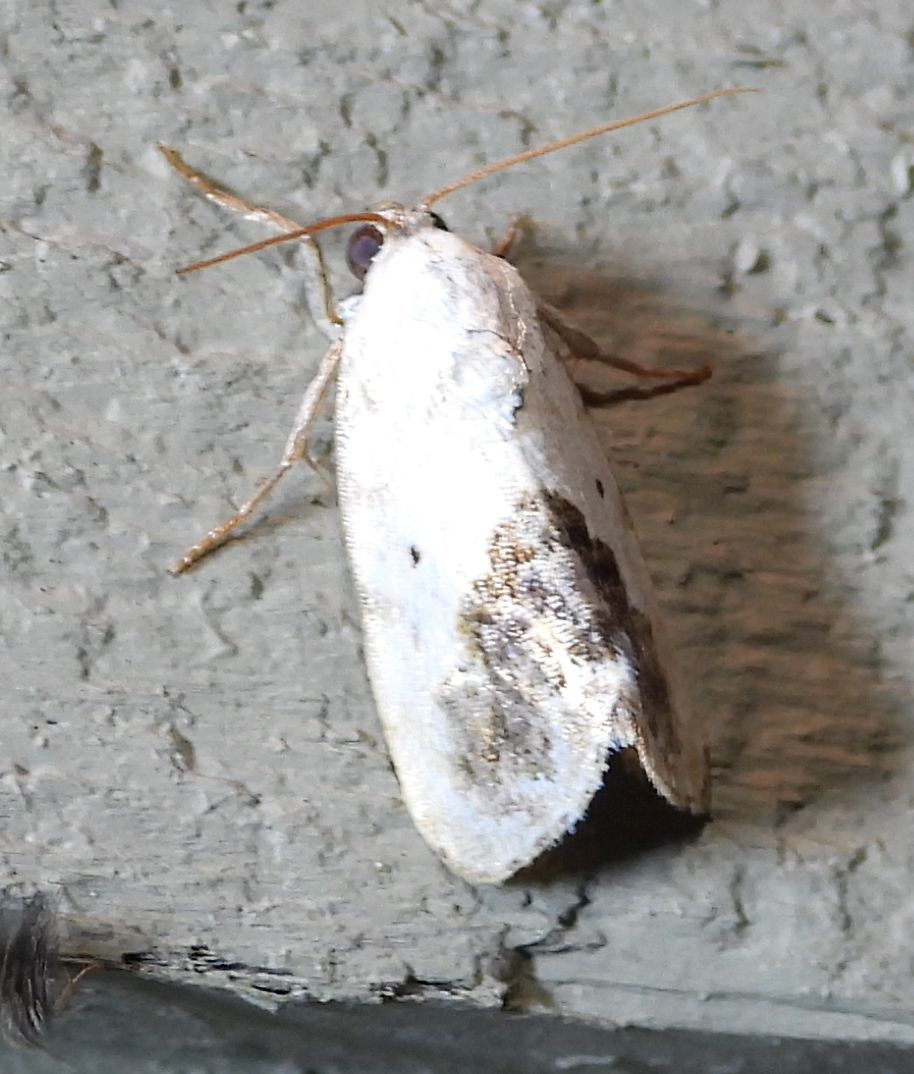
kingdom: Animalia
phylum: Arthropoda
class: Insecta
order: Lepidoptera
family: Noctuidae
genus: Acontia
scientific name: Acontia erastrioides
